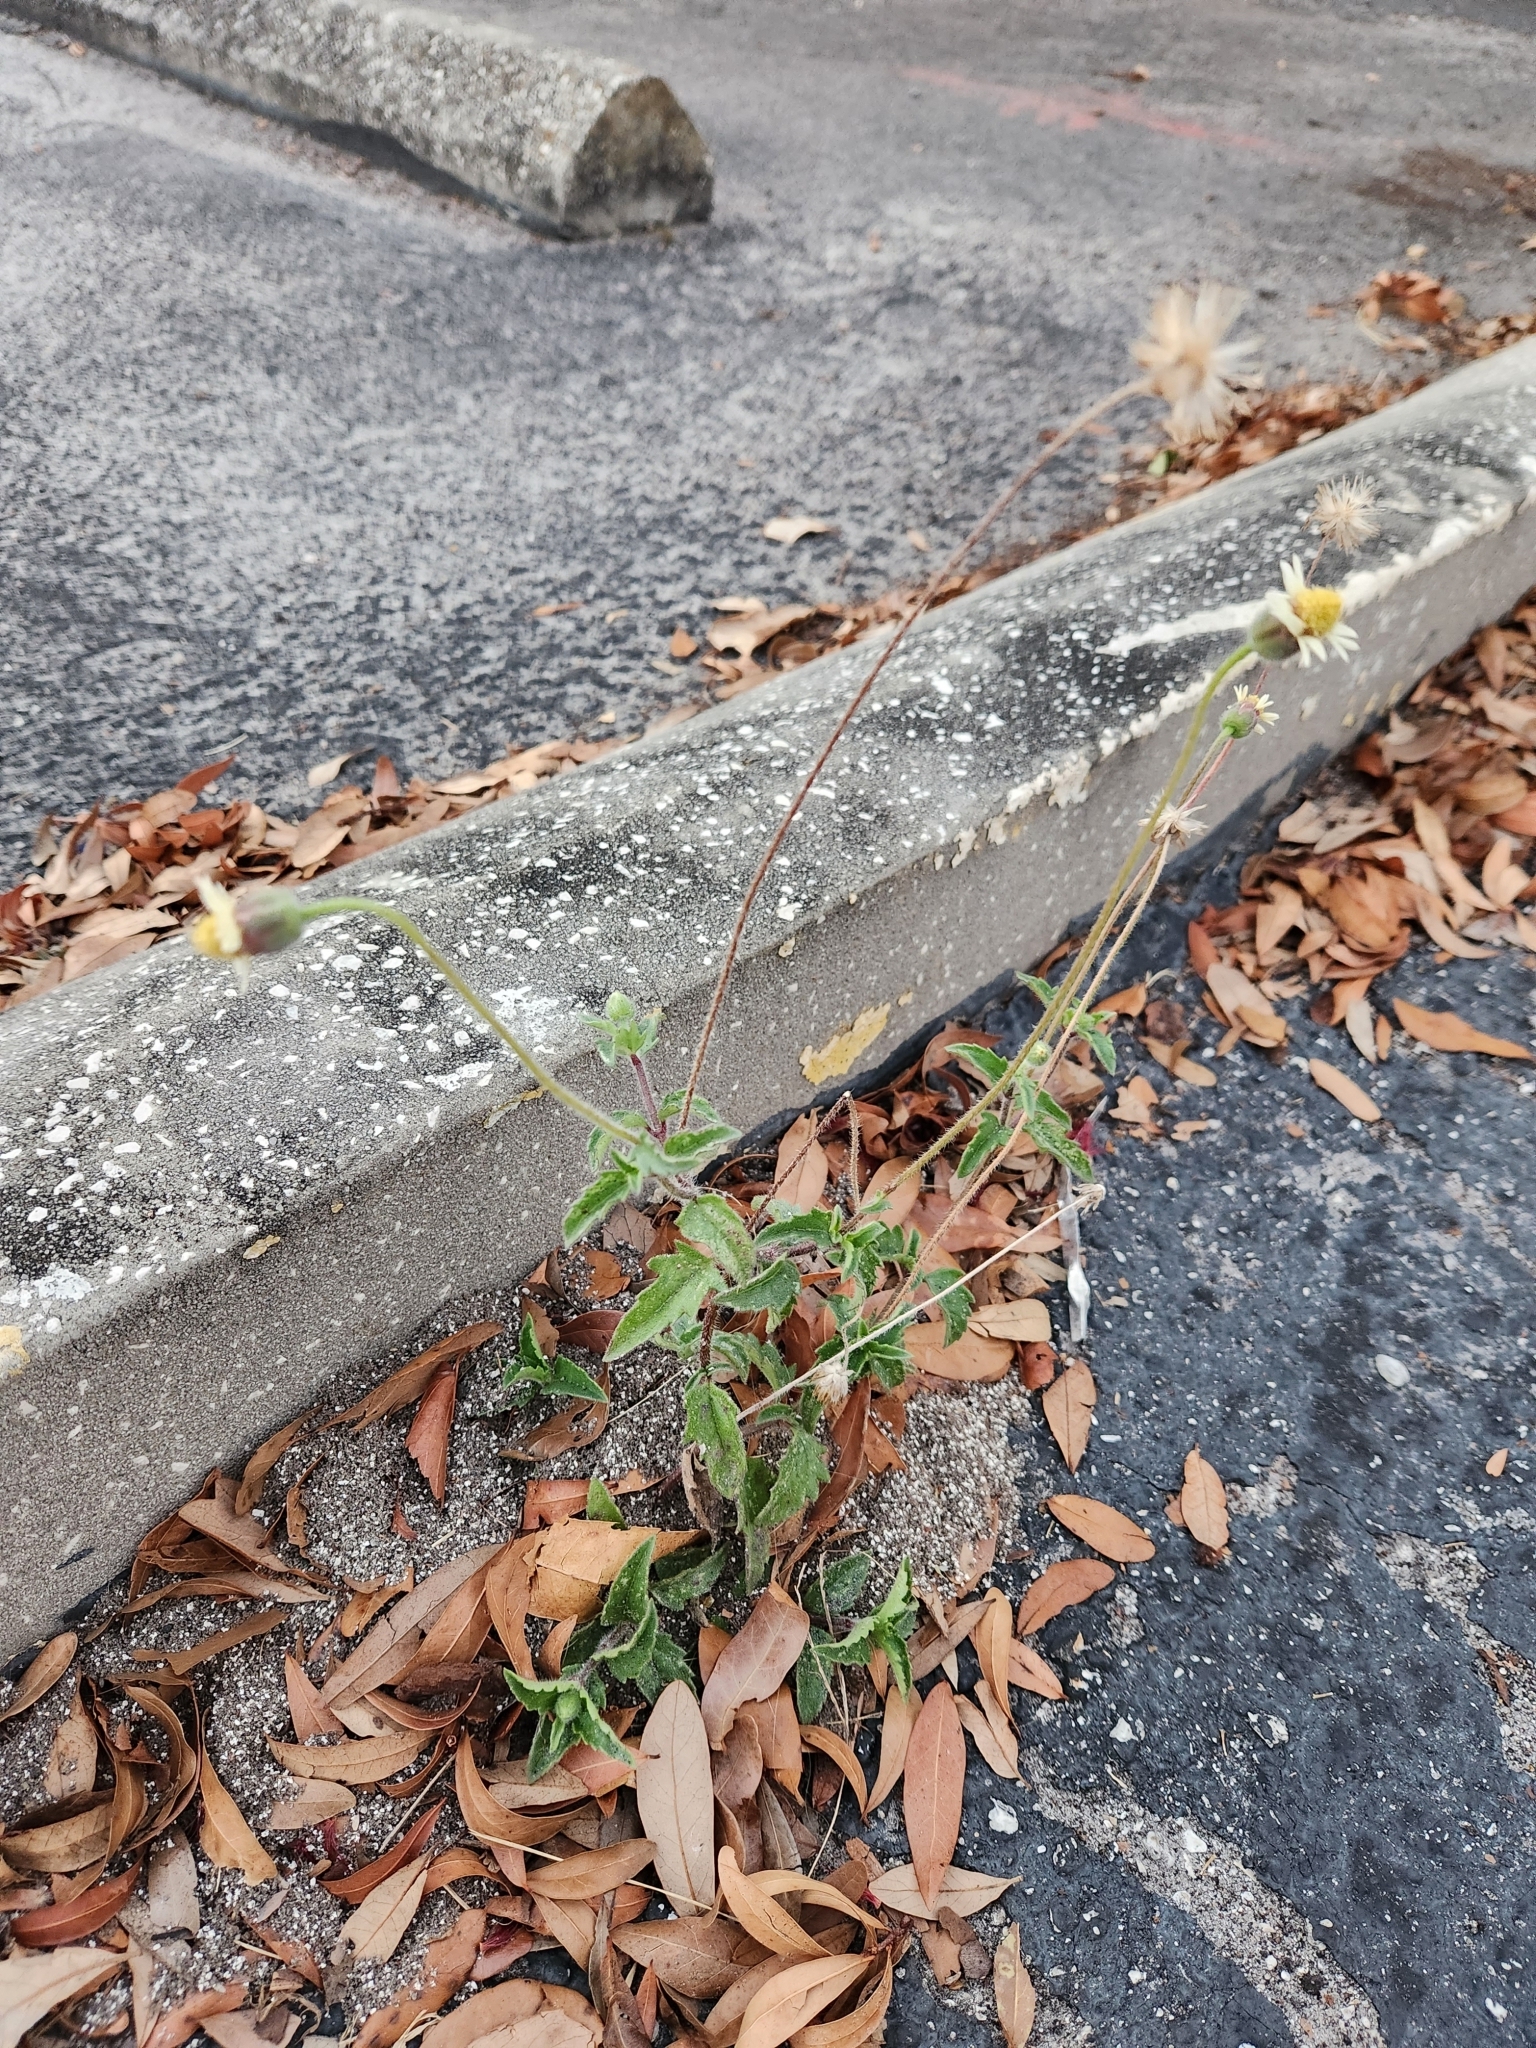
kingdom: Plantae
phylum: Tracheophyta
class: Magnoliopsida
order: Asterales
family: Asteraceae
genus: Tridax
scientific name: Tridax procumbens
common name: Coatbuttons
